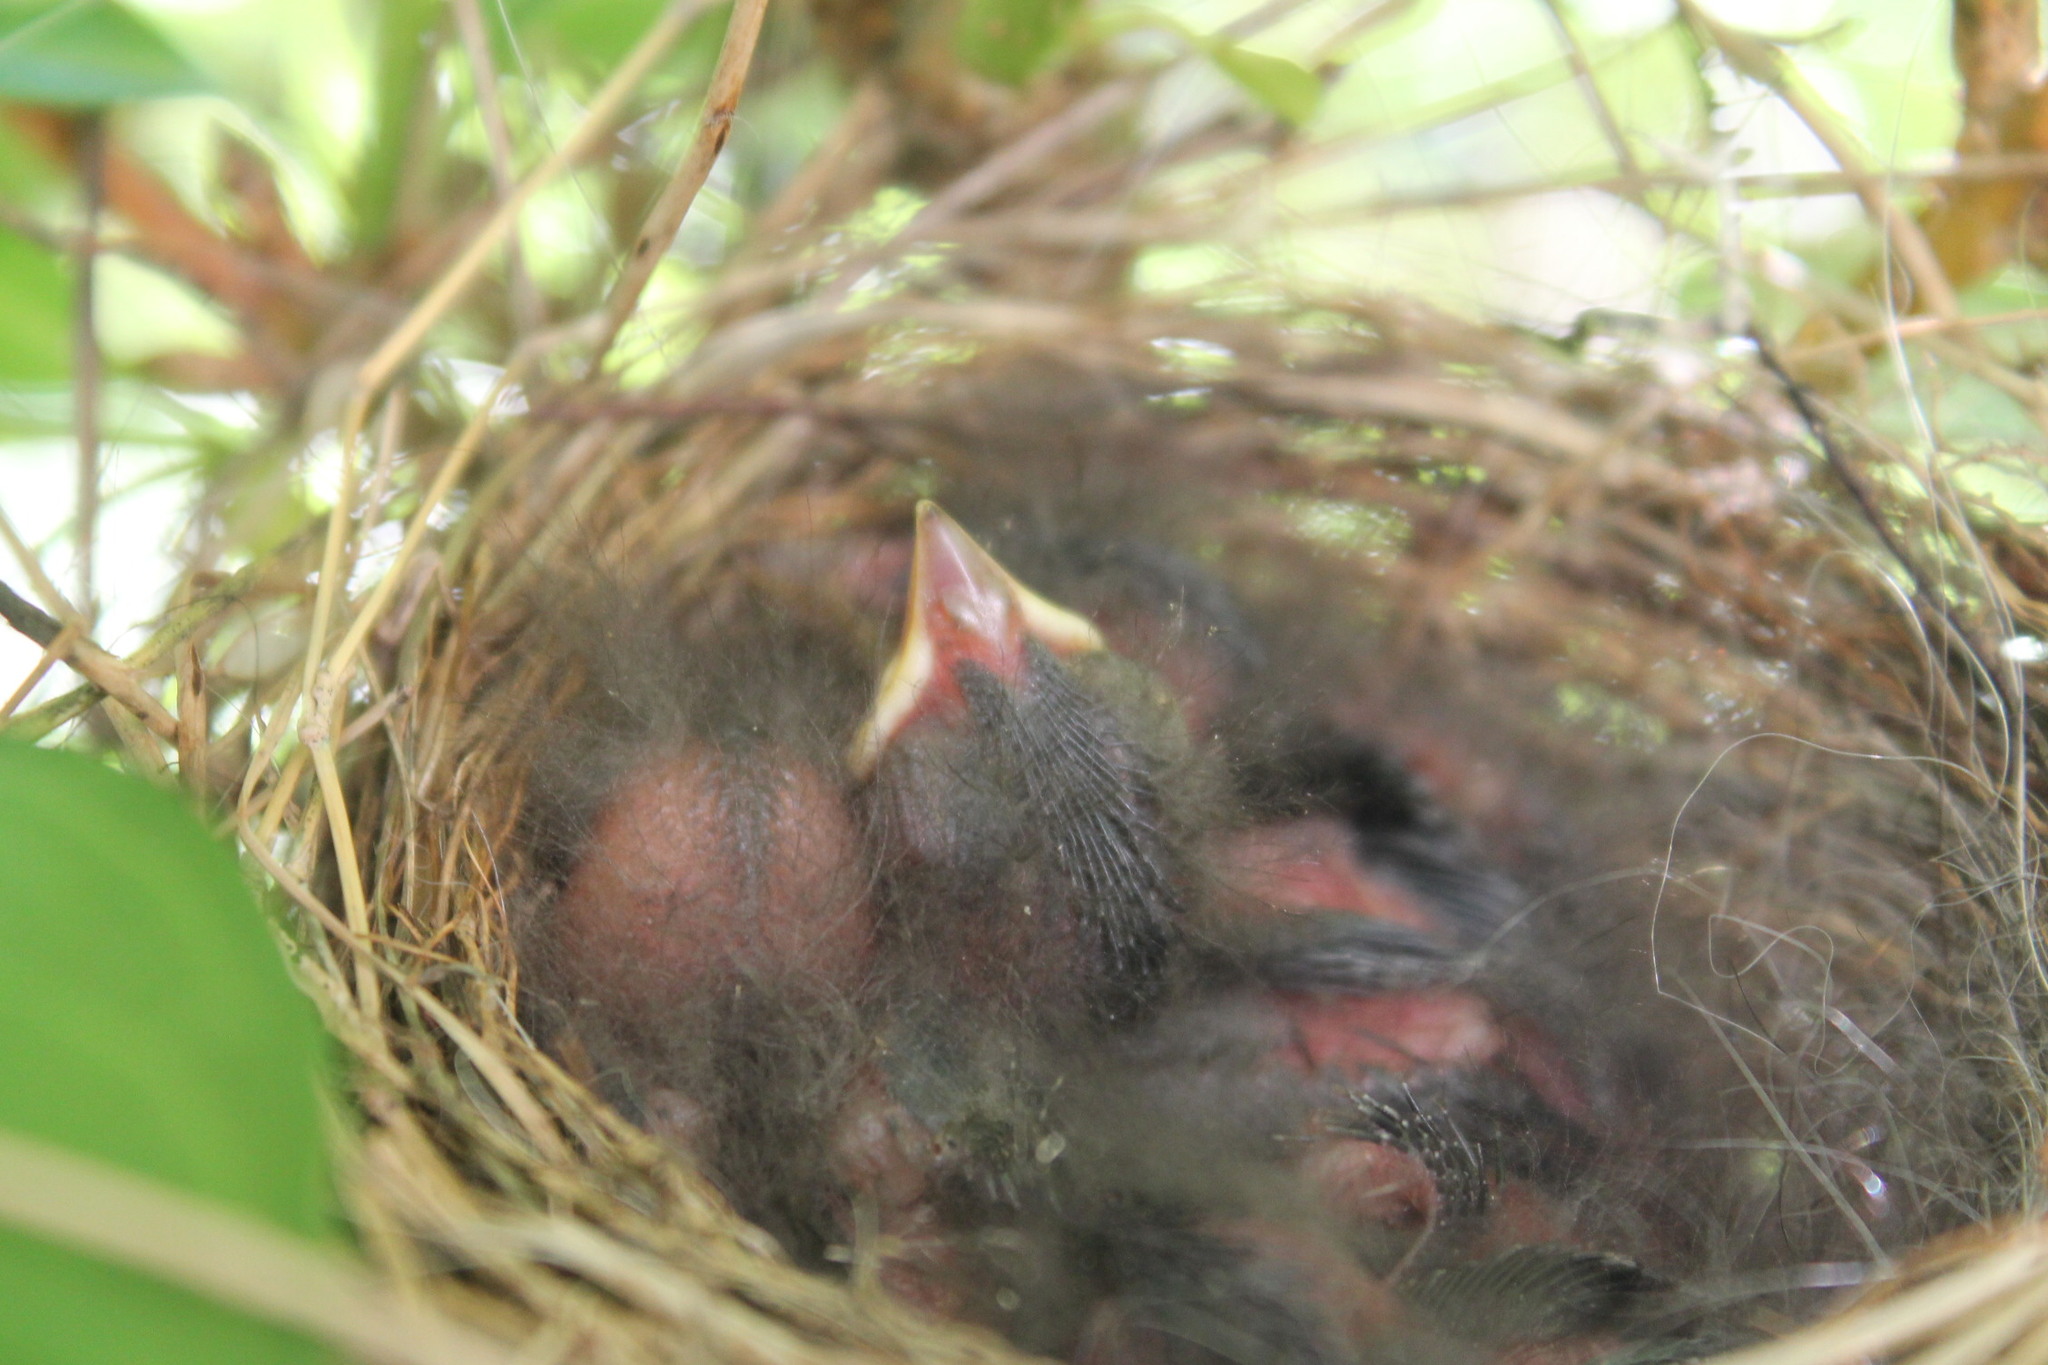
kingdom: Animalia
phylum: Chordata
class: Aves
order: Passeriformes
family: Passerellidae
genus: Spizella
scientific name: Spizella passerina
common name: Chipping sparrow
